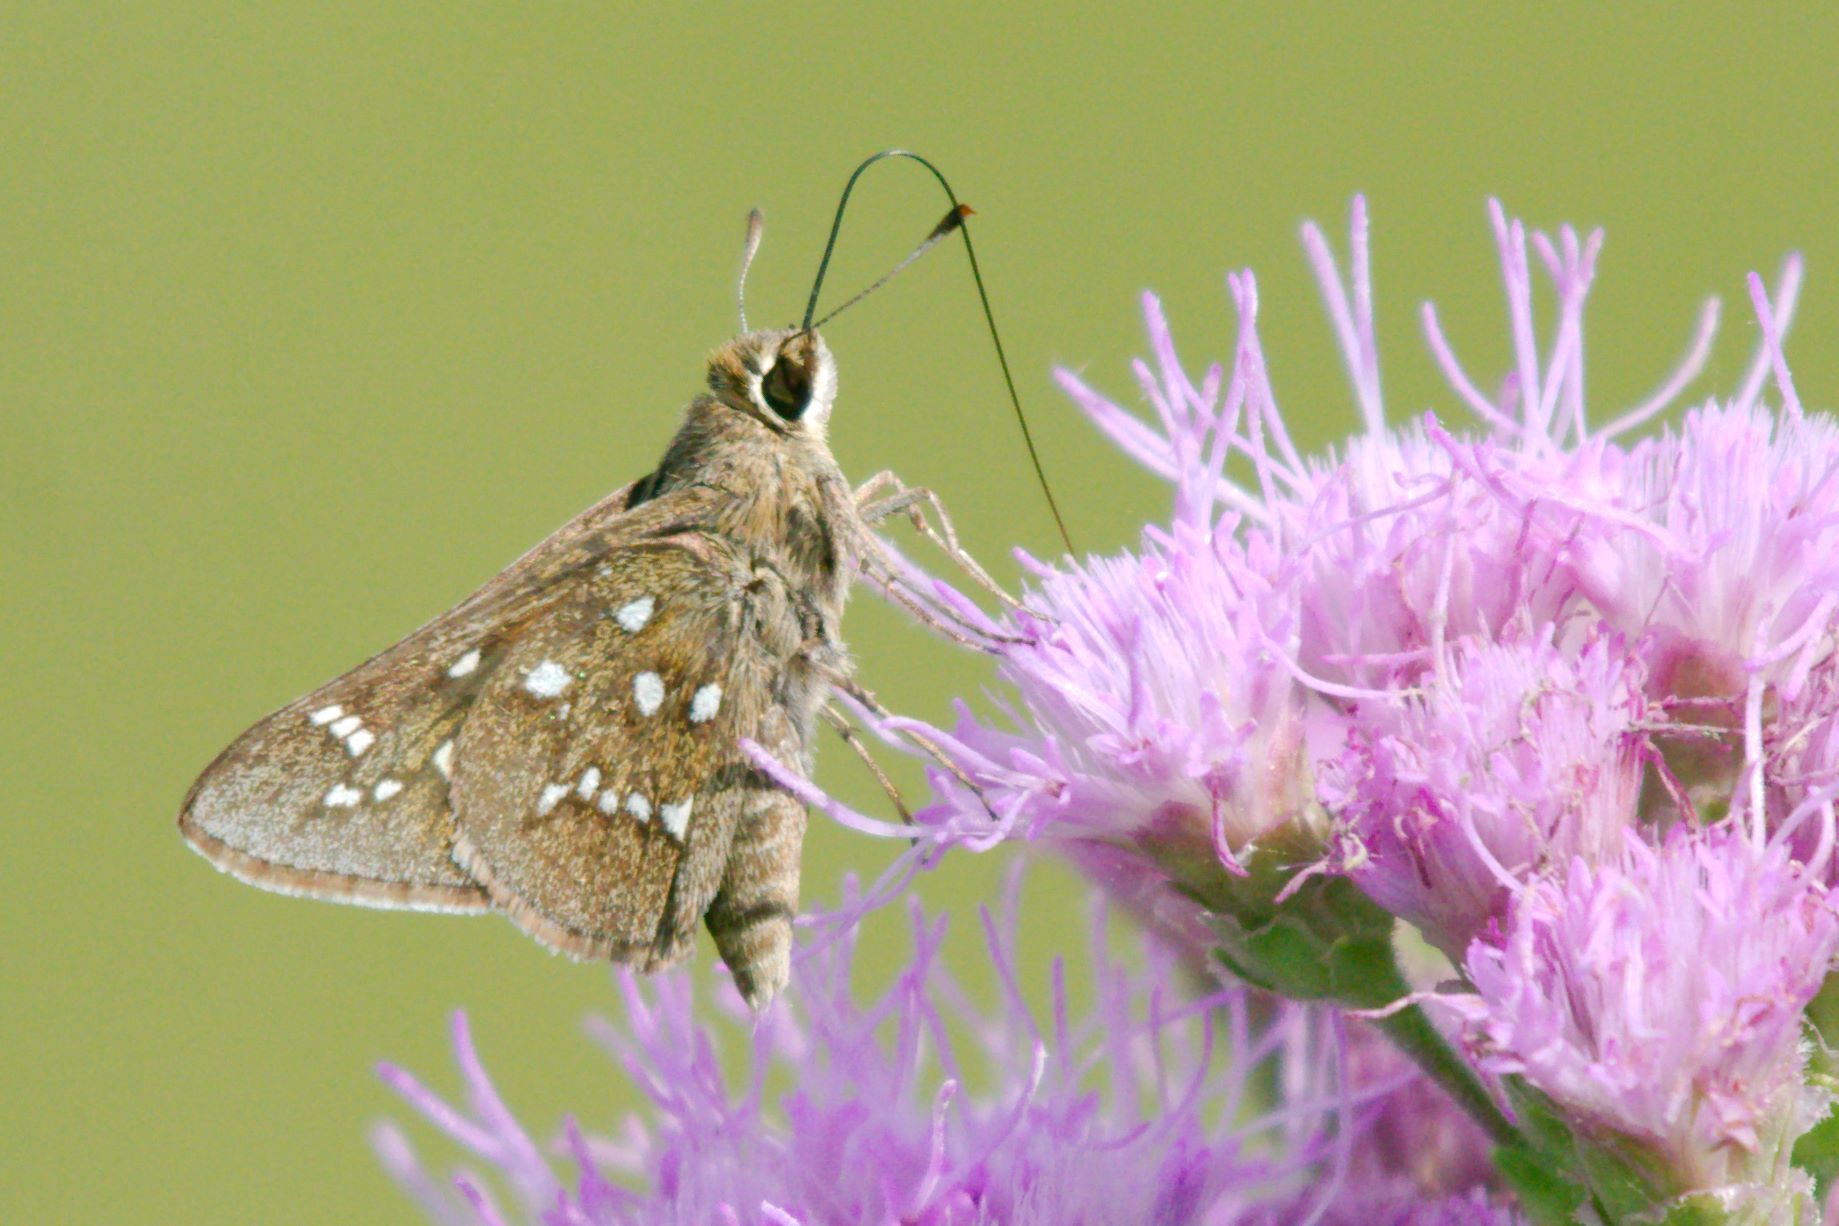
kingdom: Animalia
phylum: Arthropoda
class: Insecta
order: Lepidoptera
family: Hesperiidae
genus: Atrytonopsis
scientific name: Atrytonopsis loammi
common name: Loammi skipper
